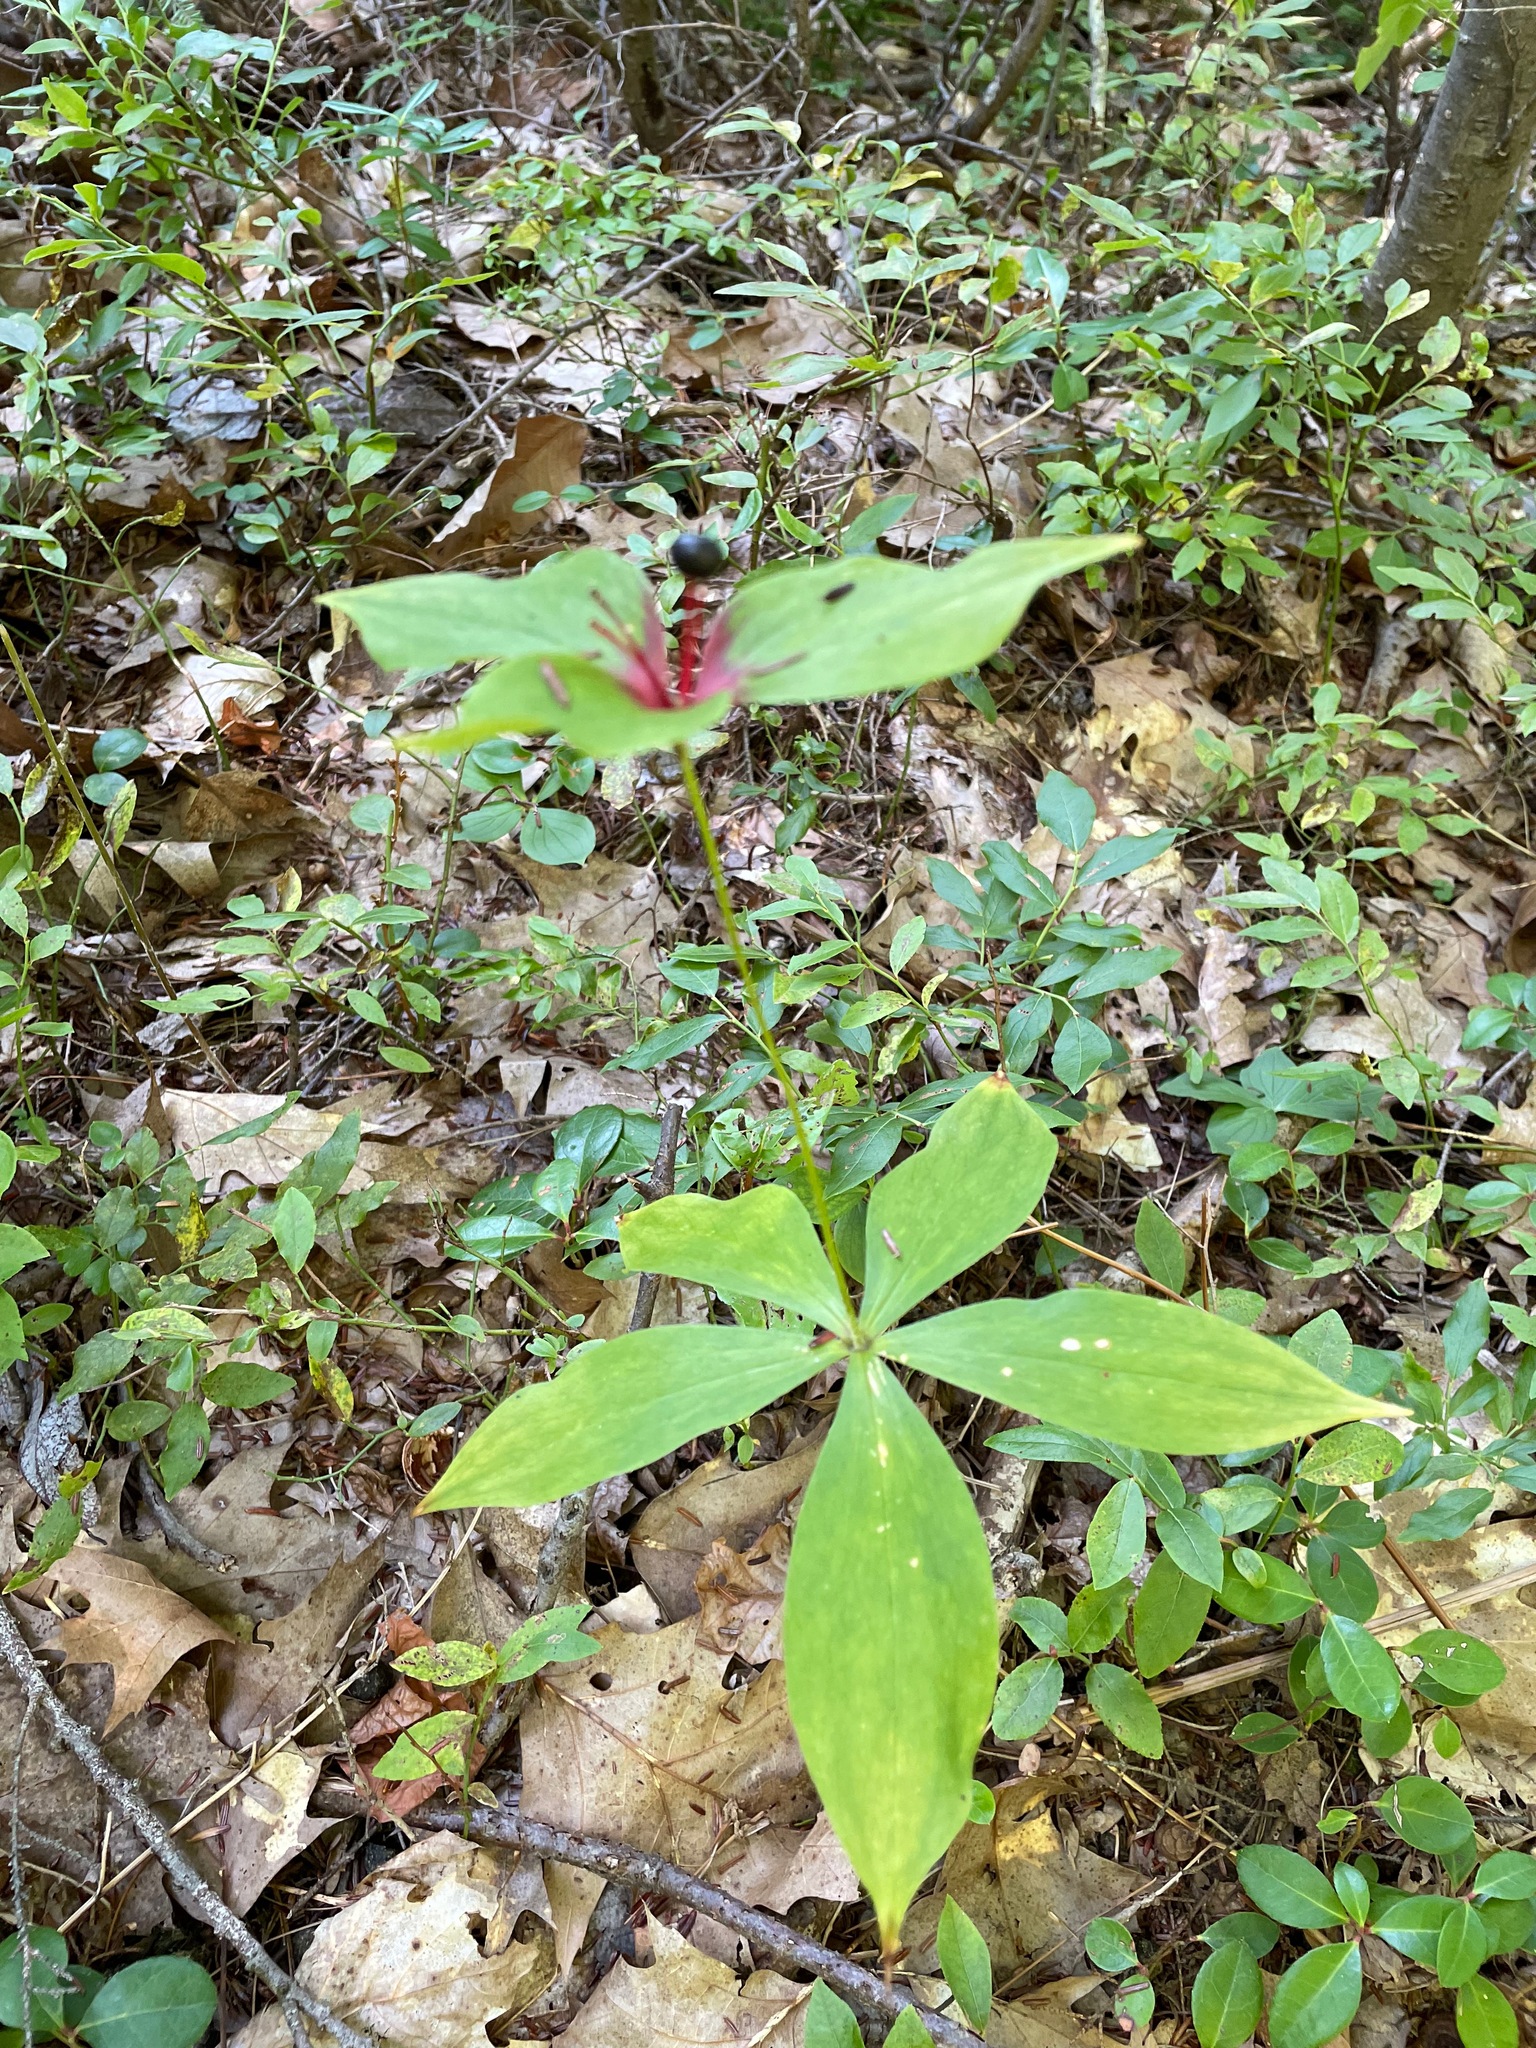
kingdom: Plantae
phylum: Tracheophyta
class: Liliopsida
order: Liliales
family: Liliaceae
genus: Medeola
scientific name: Medeola virginiana
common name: Indian cucumber-root
